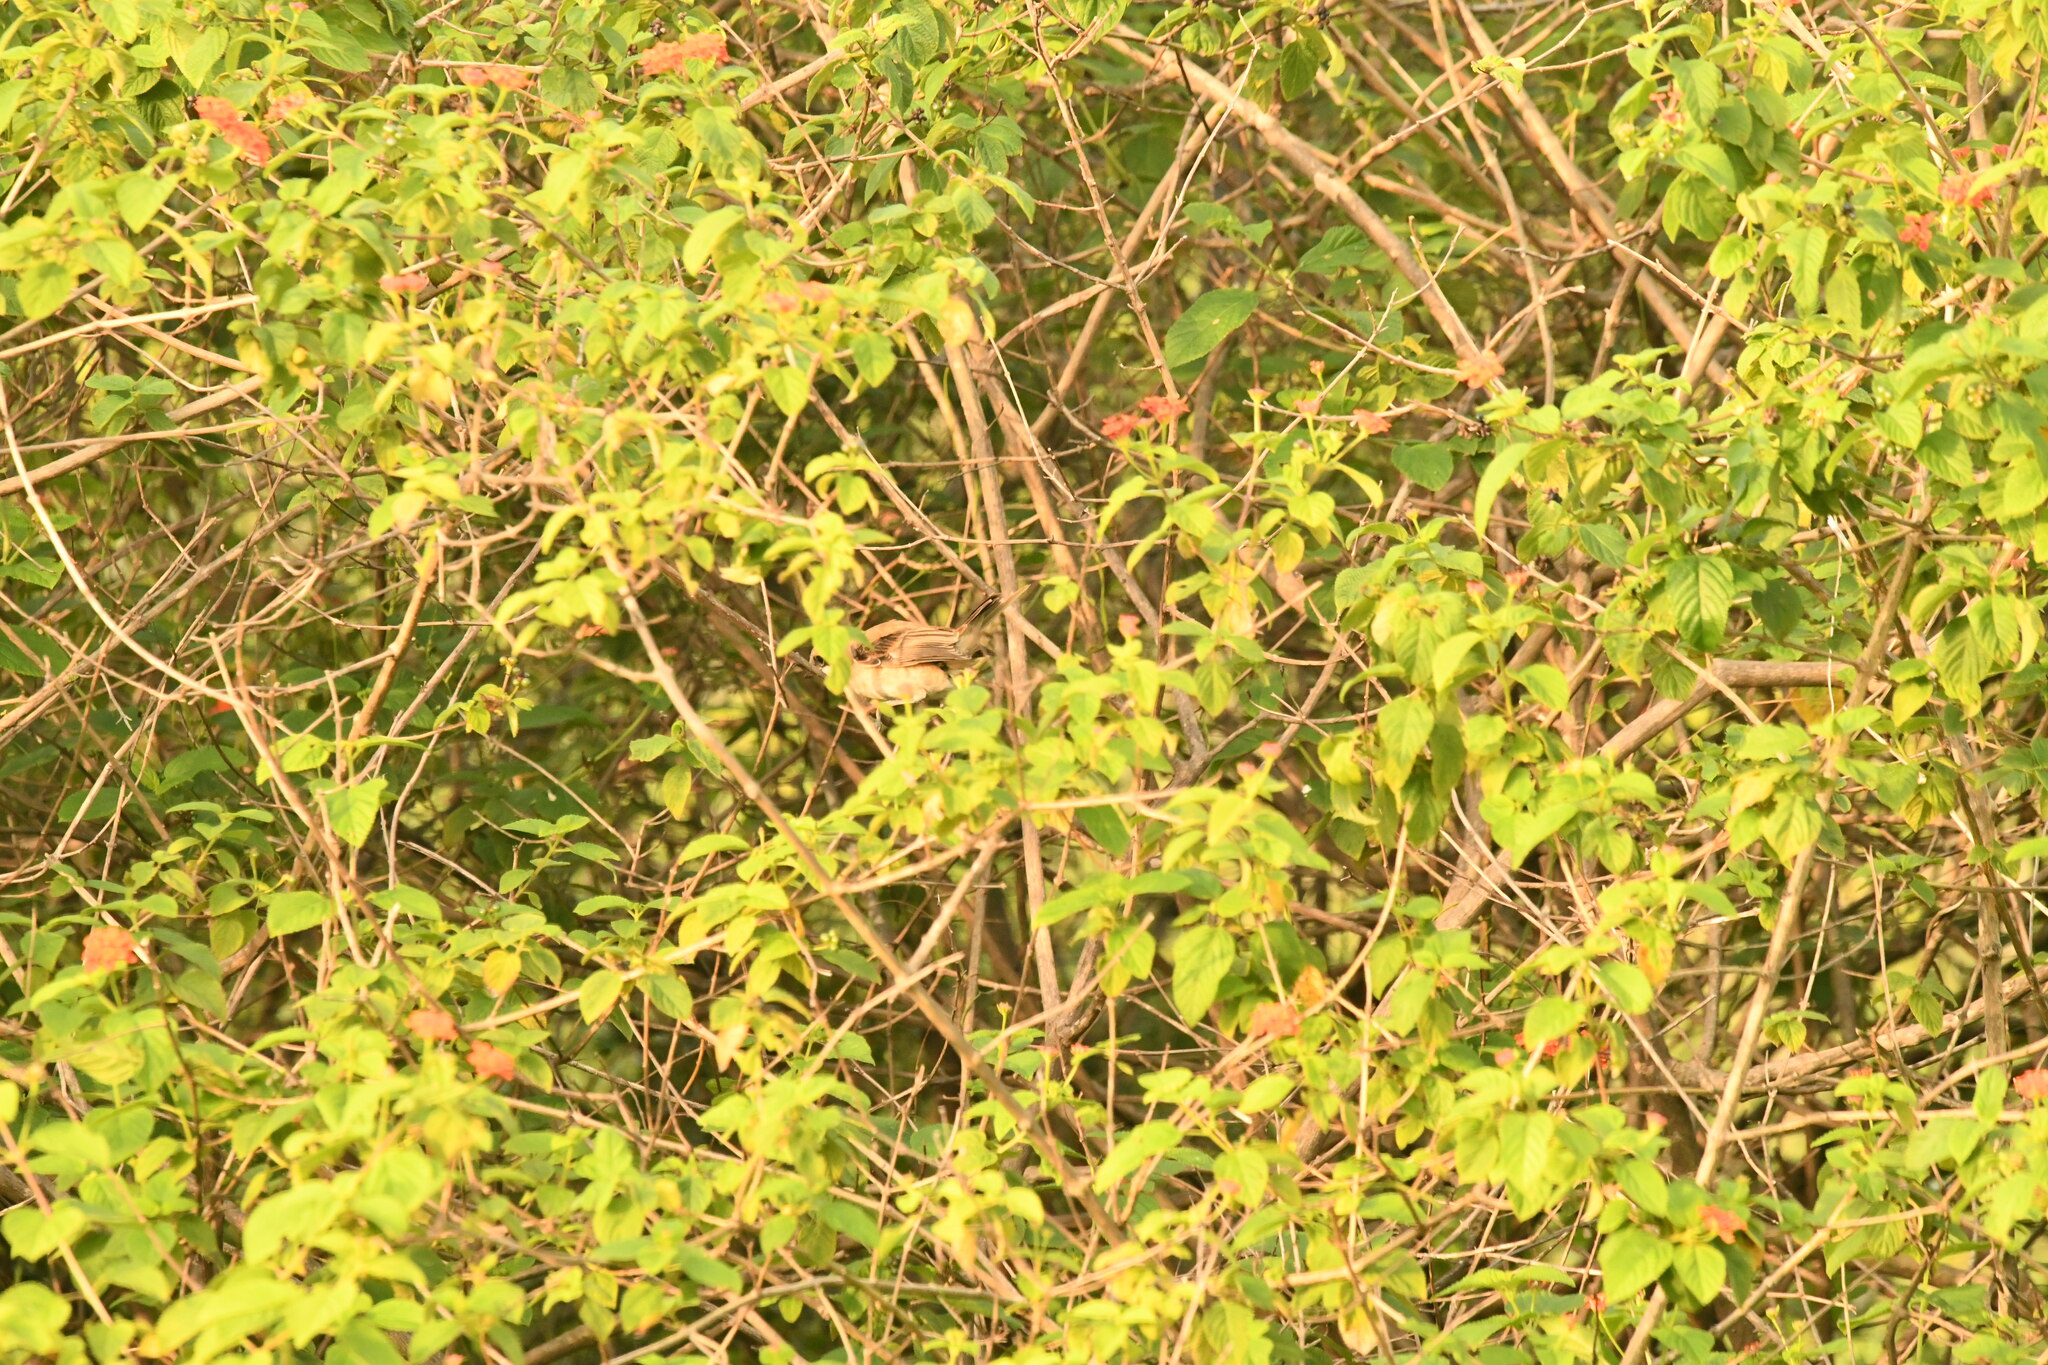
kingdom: Animalia
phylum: Chordata
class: Aves
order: Passeriformes
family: Laniidae
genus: Lanius
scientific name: Lanius schach
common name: Long-tailed shrike
